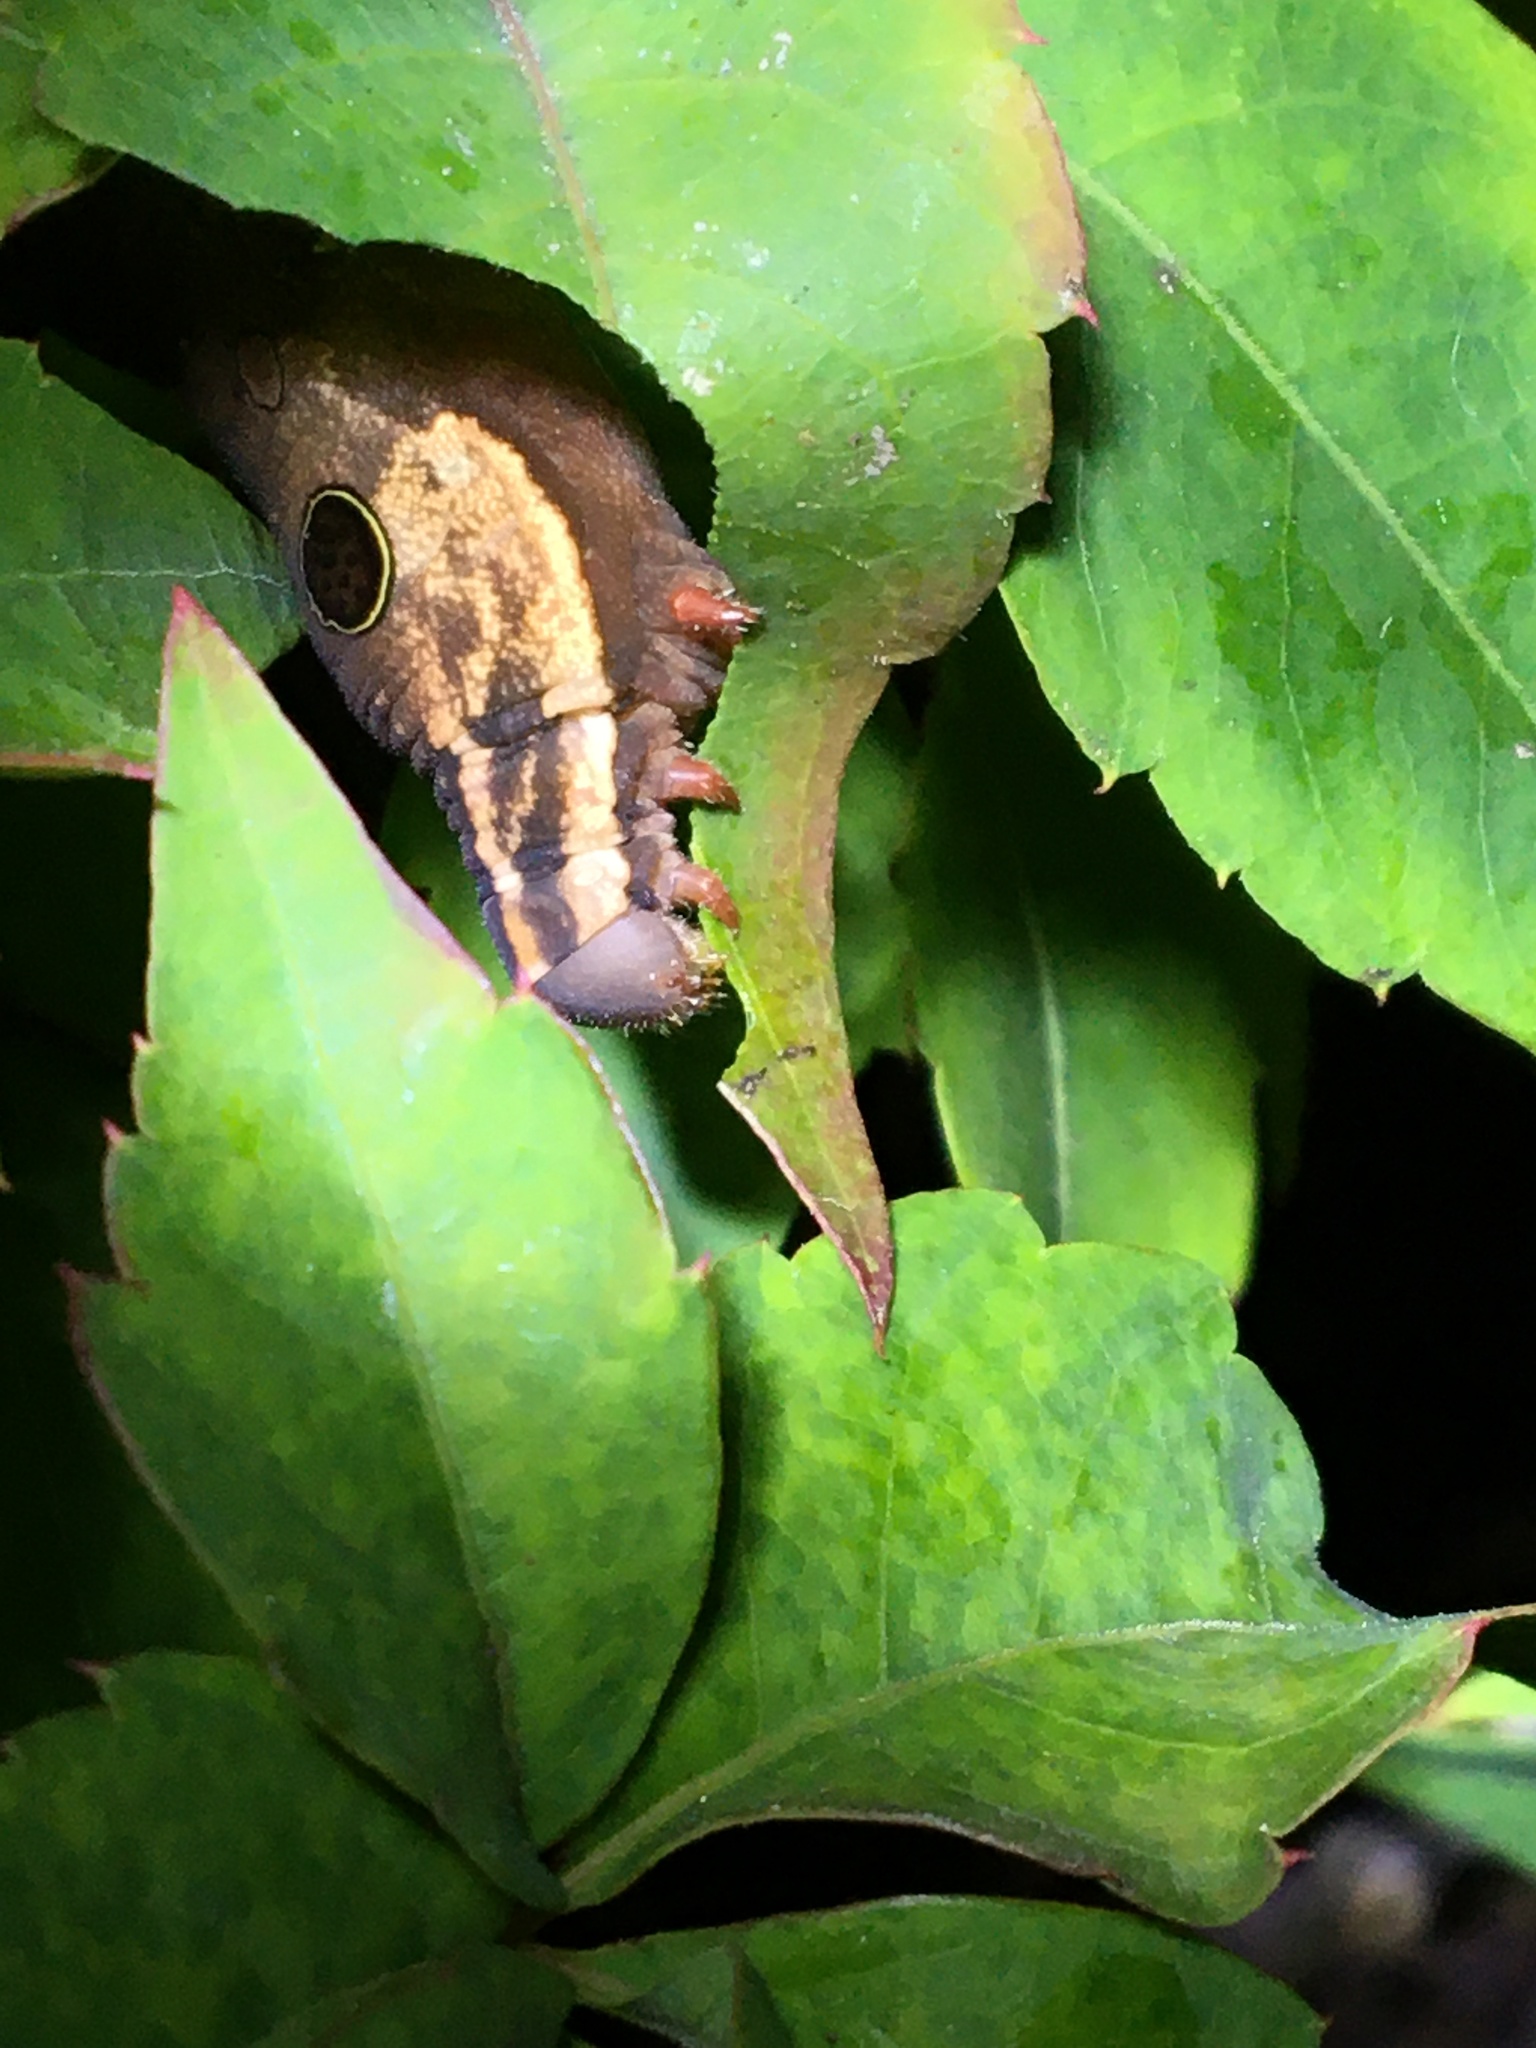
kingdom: Animalia
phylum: Arthropoda
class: Insecta
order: Lepidoptera
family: Sphingidae
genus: Hippotion
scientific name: Hippotion eson
